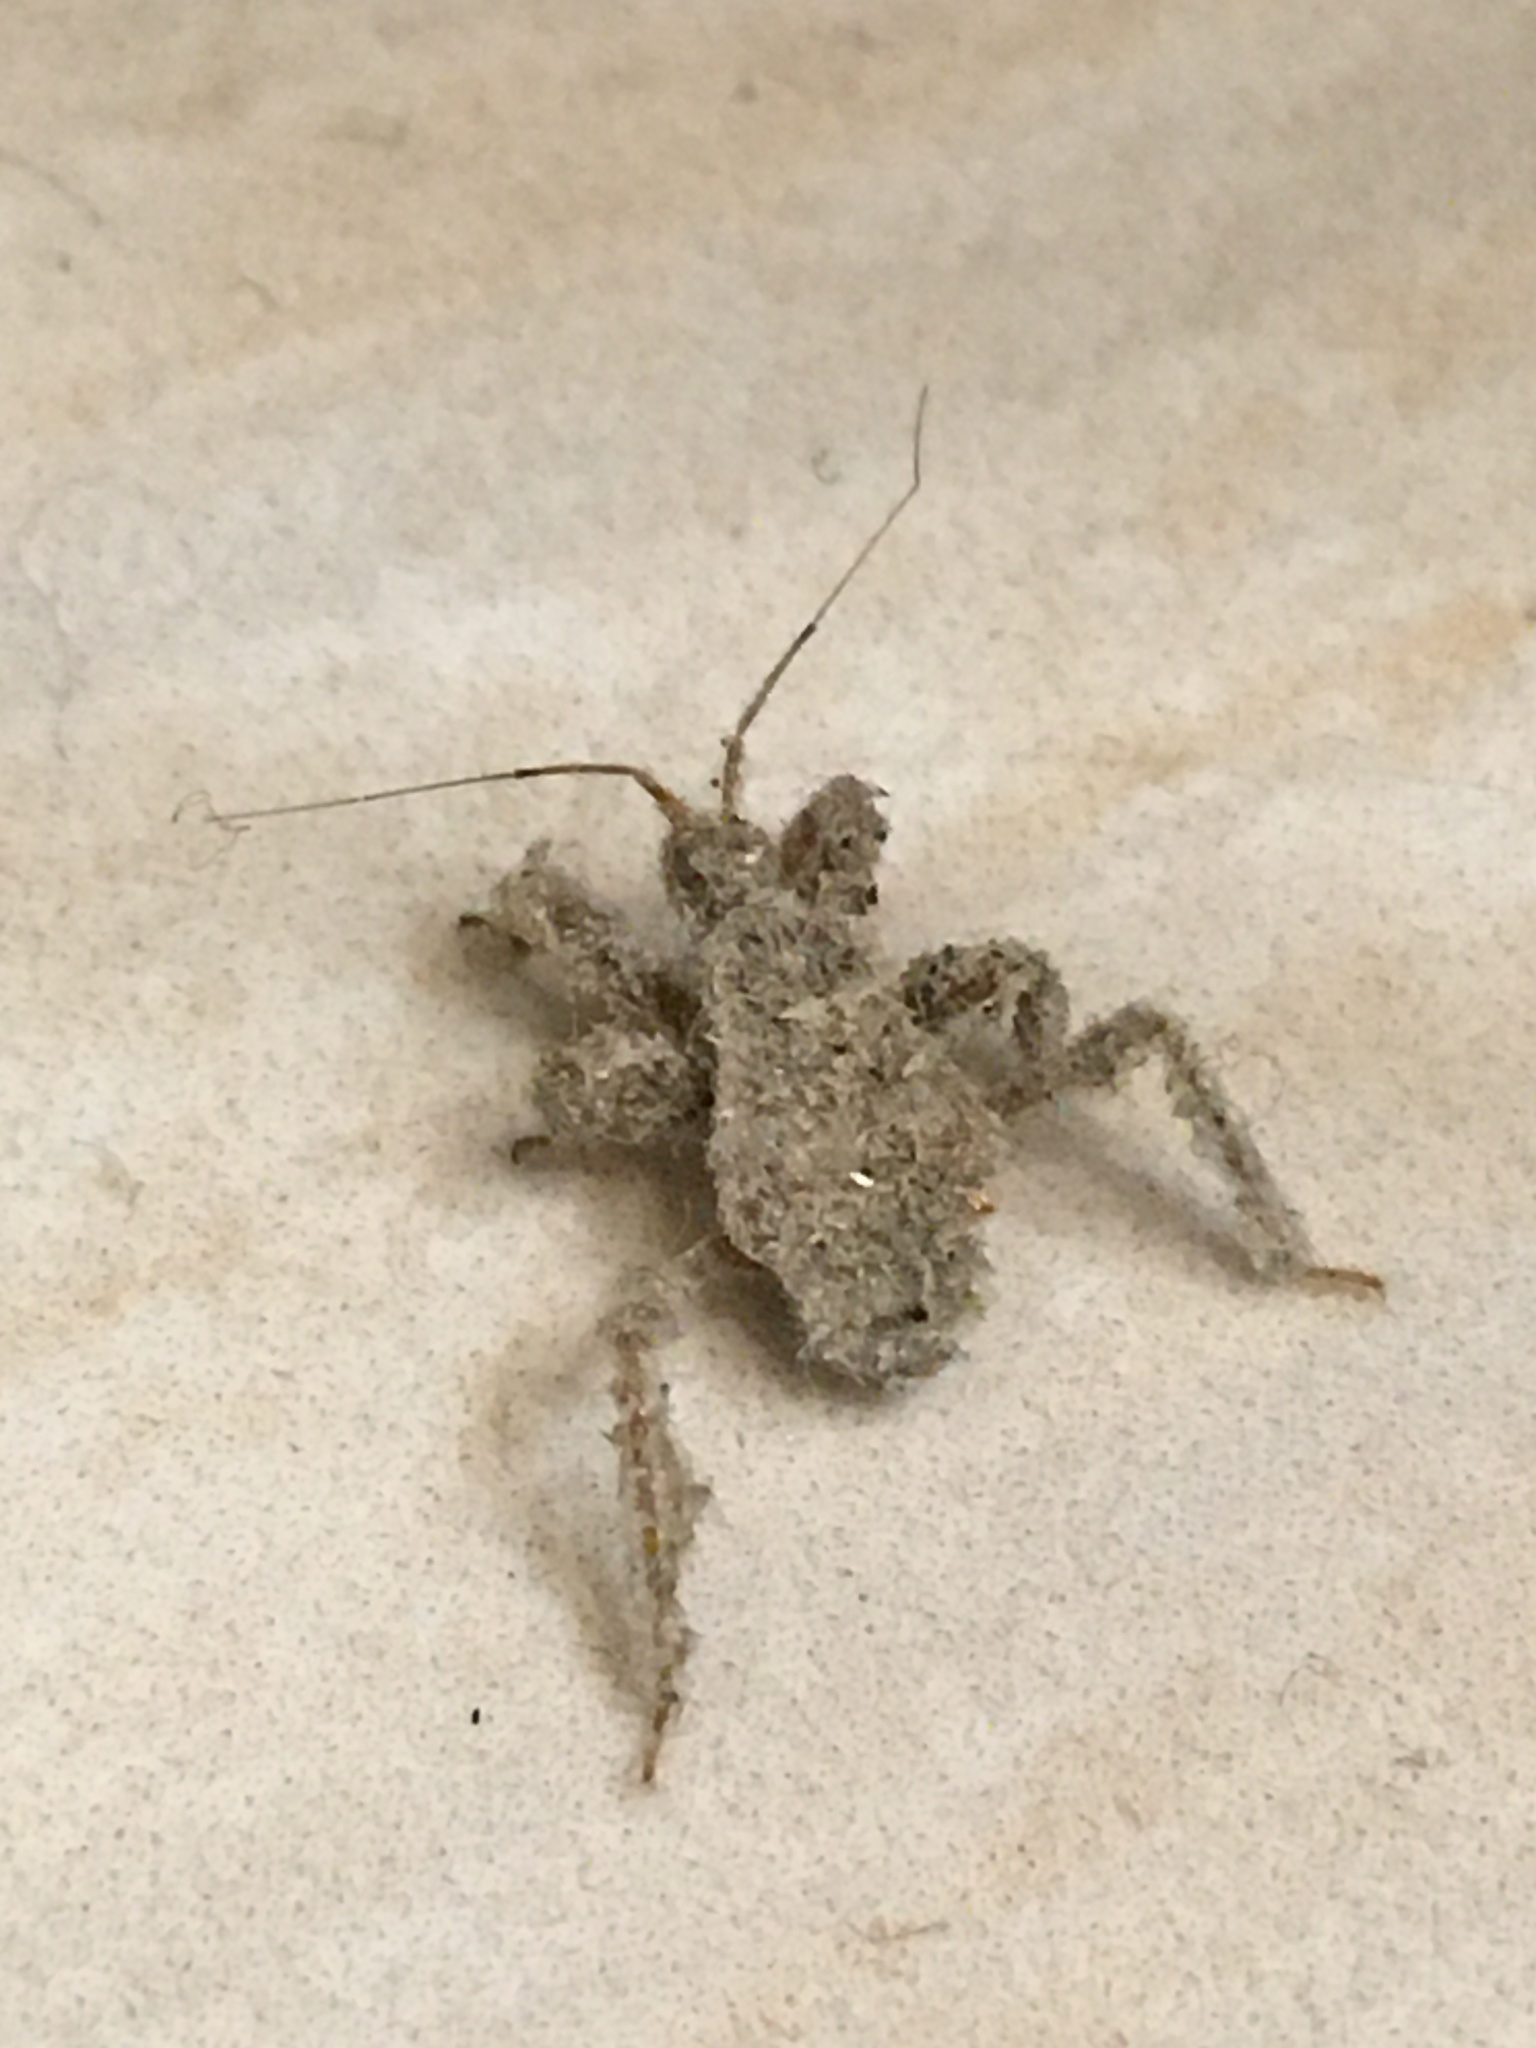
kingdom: Animalia
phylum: Arthropoda
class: Insecta
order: Hemiptera
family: Reduviidae
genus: Reduvius
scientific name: Reduvius personatus
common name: Masked hunter
